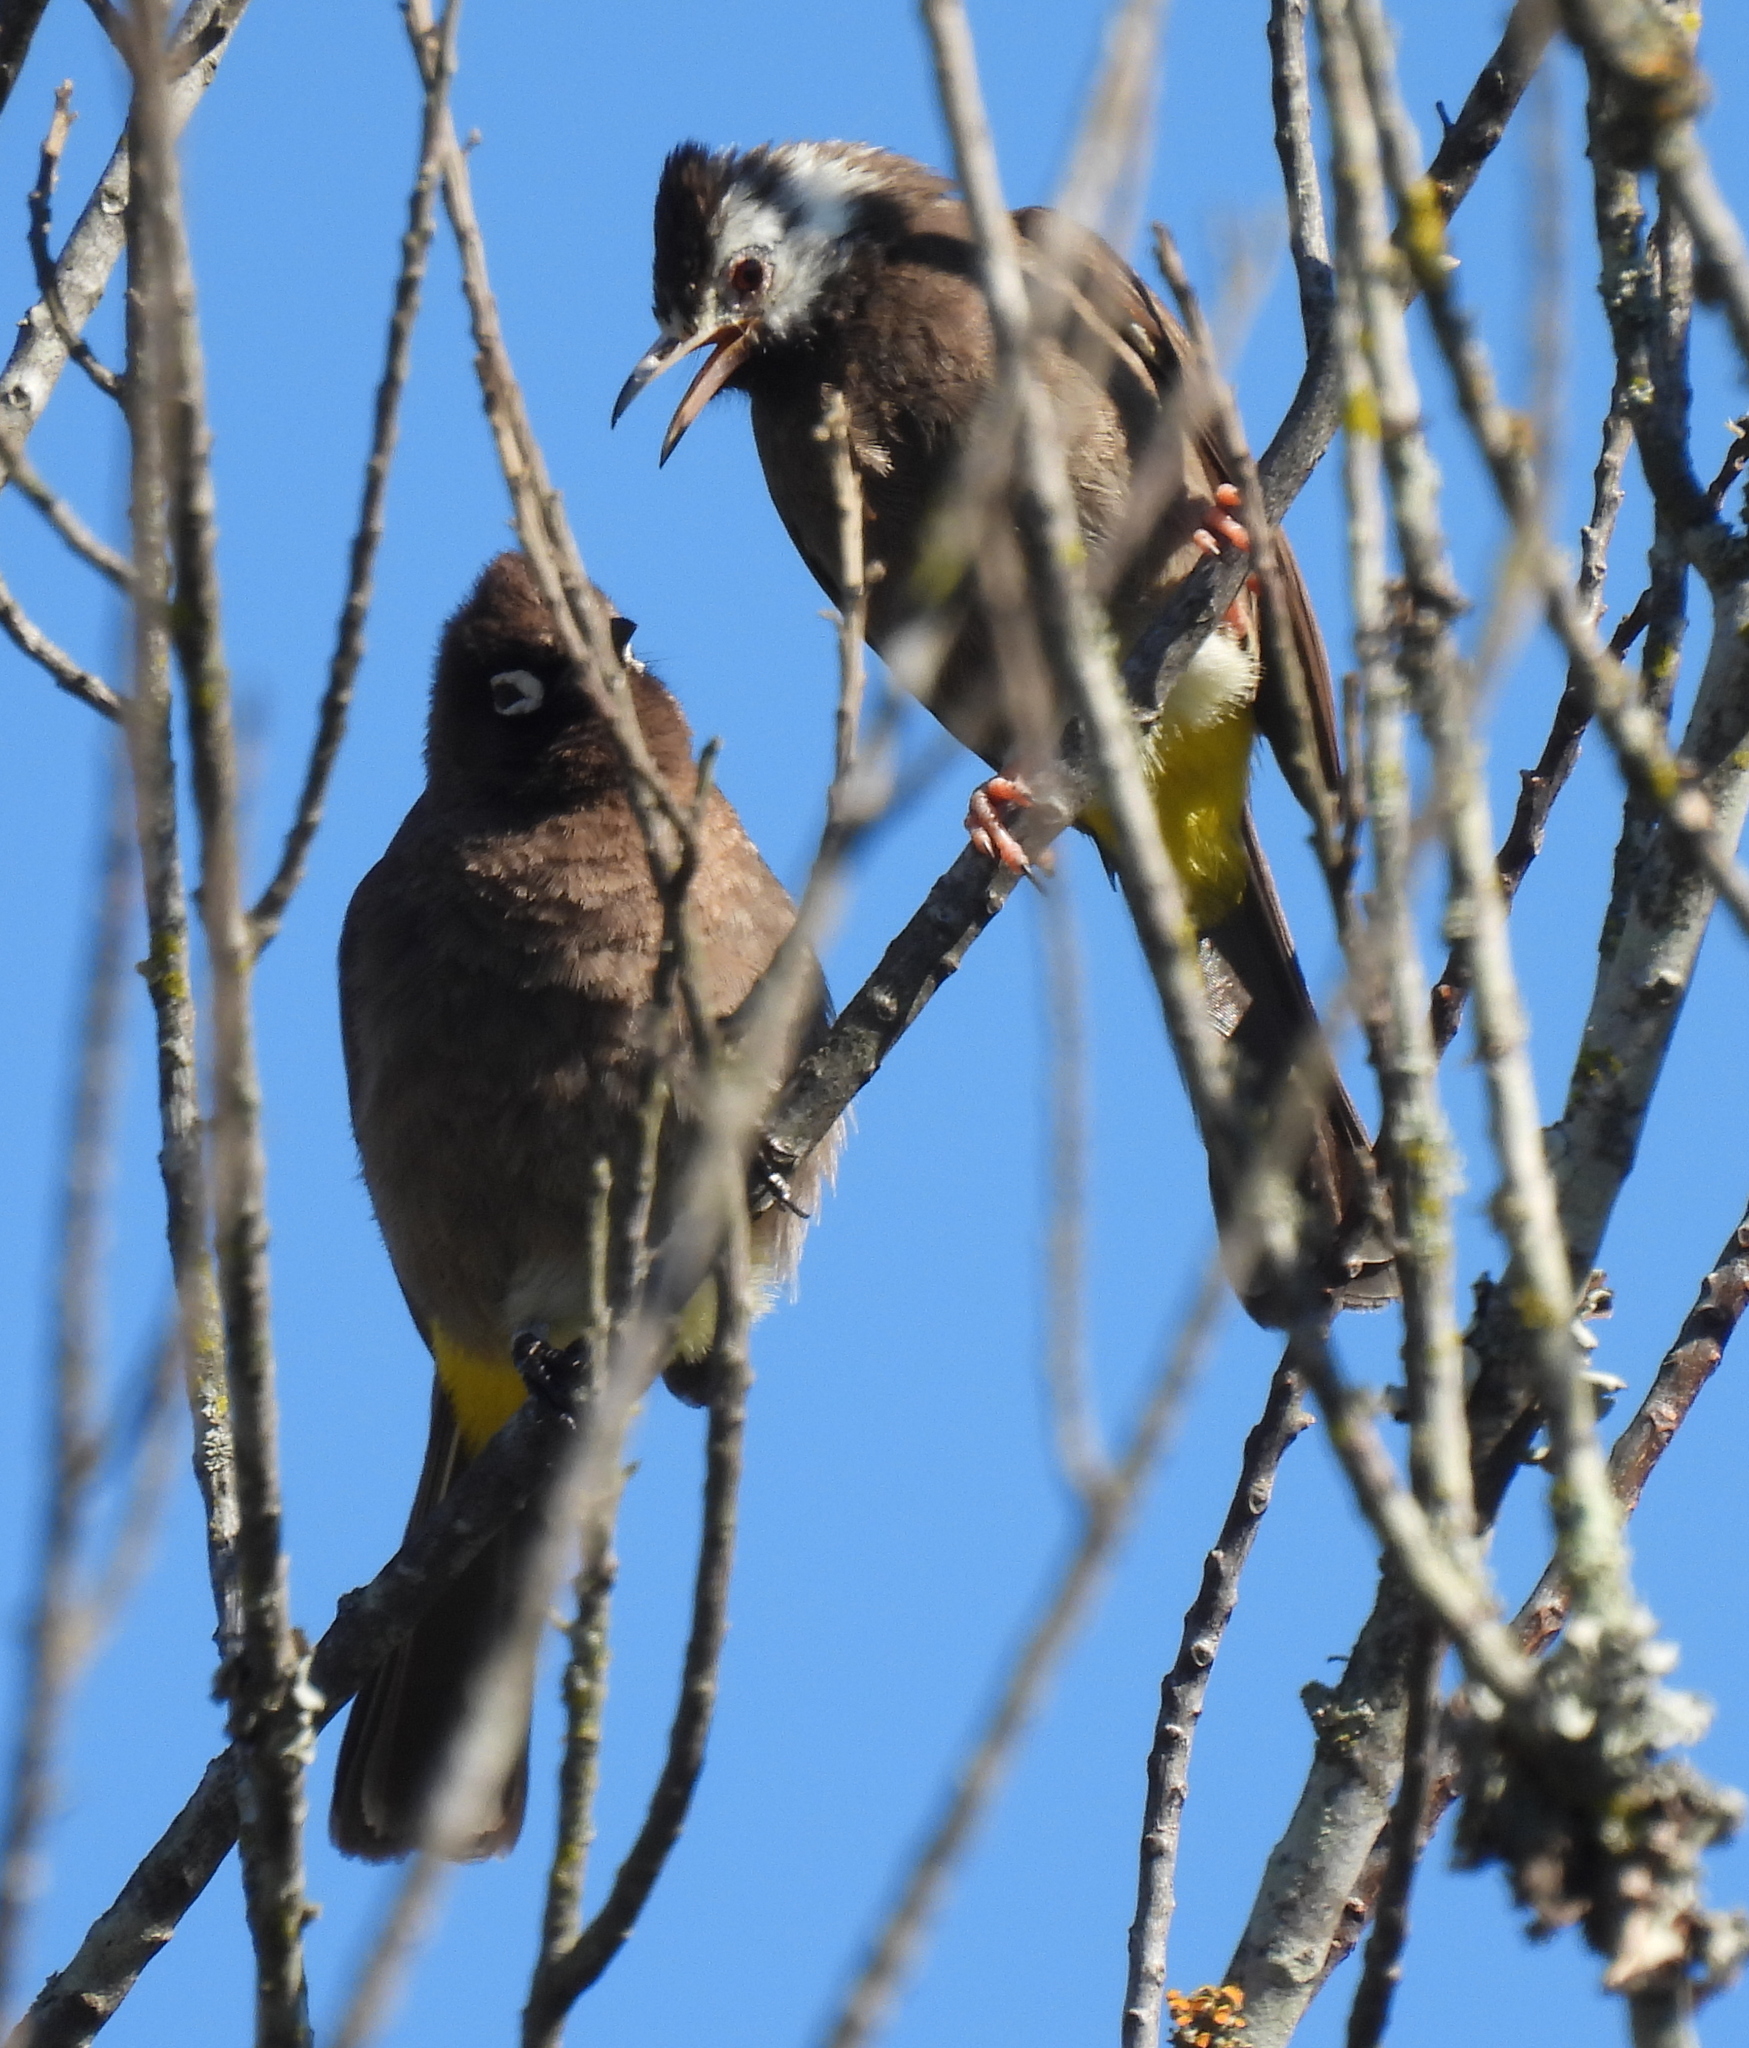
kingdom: Animalia
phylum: Chordata
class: Aves
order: Passeriformes
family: Pycnonotidae
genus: Pycnonotus
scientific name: Pycnonotus capensis
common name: Cape bulbul
